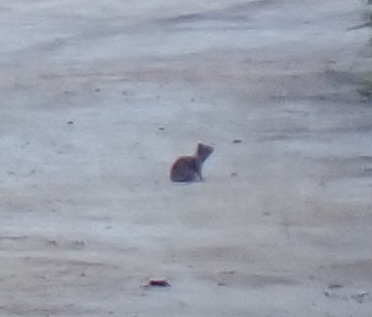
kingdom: Animalia
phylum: Chordata
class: Mammalia
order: Rodentia
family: Sciuridae
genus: Otospermophilus
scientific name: Otospermophilus beecheyi
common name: California ground squirrel
